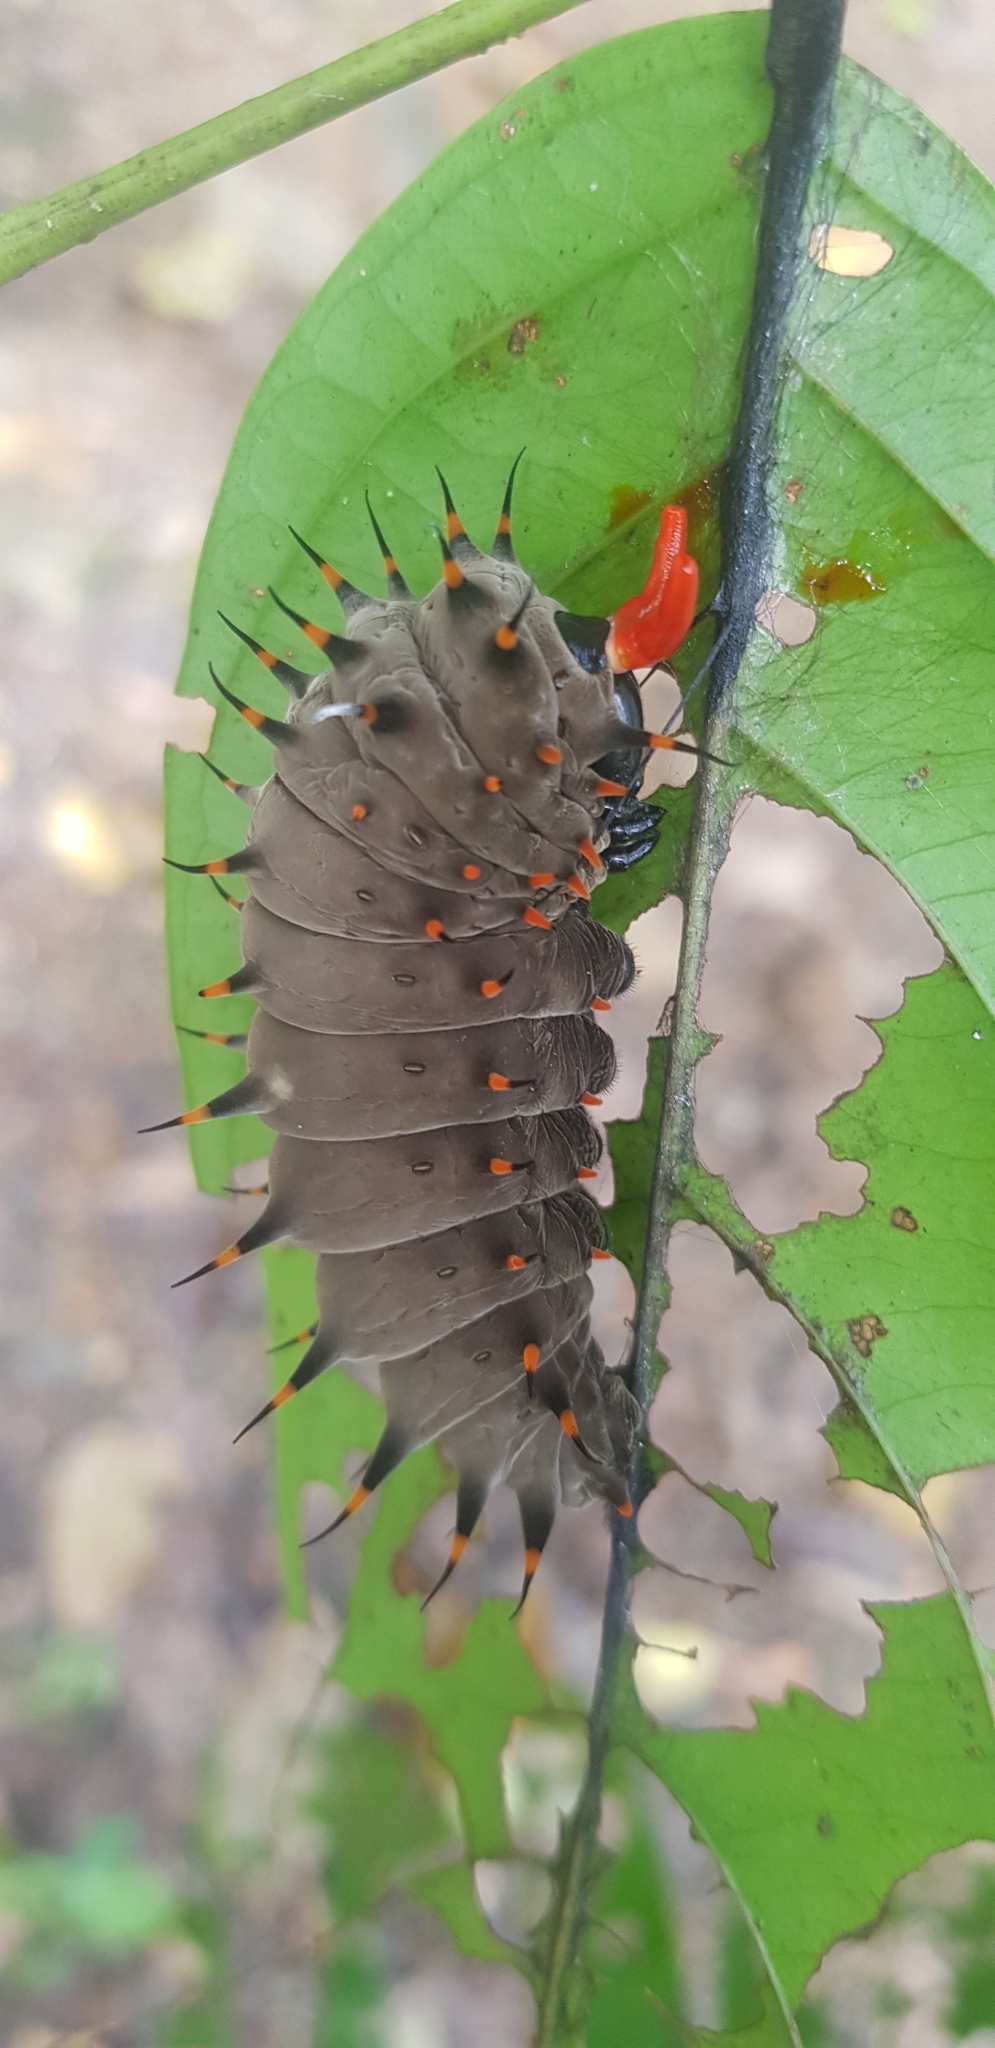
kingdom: Animalia
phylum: Arthropoda
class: Insecta
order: Lepidoptera
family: Papilionidae
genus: Ornithoptera
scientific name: Ornithoptera euphorion
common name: Cairns birdwing
